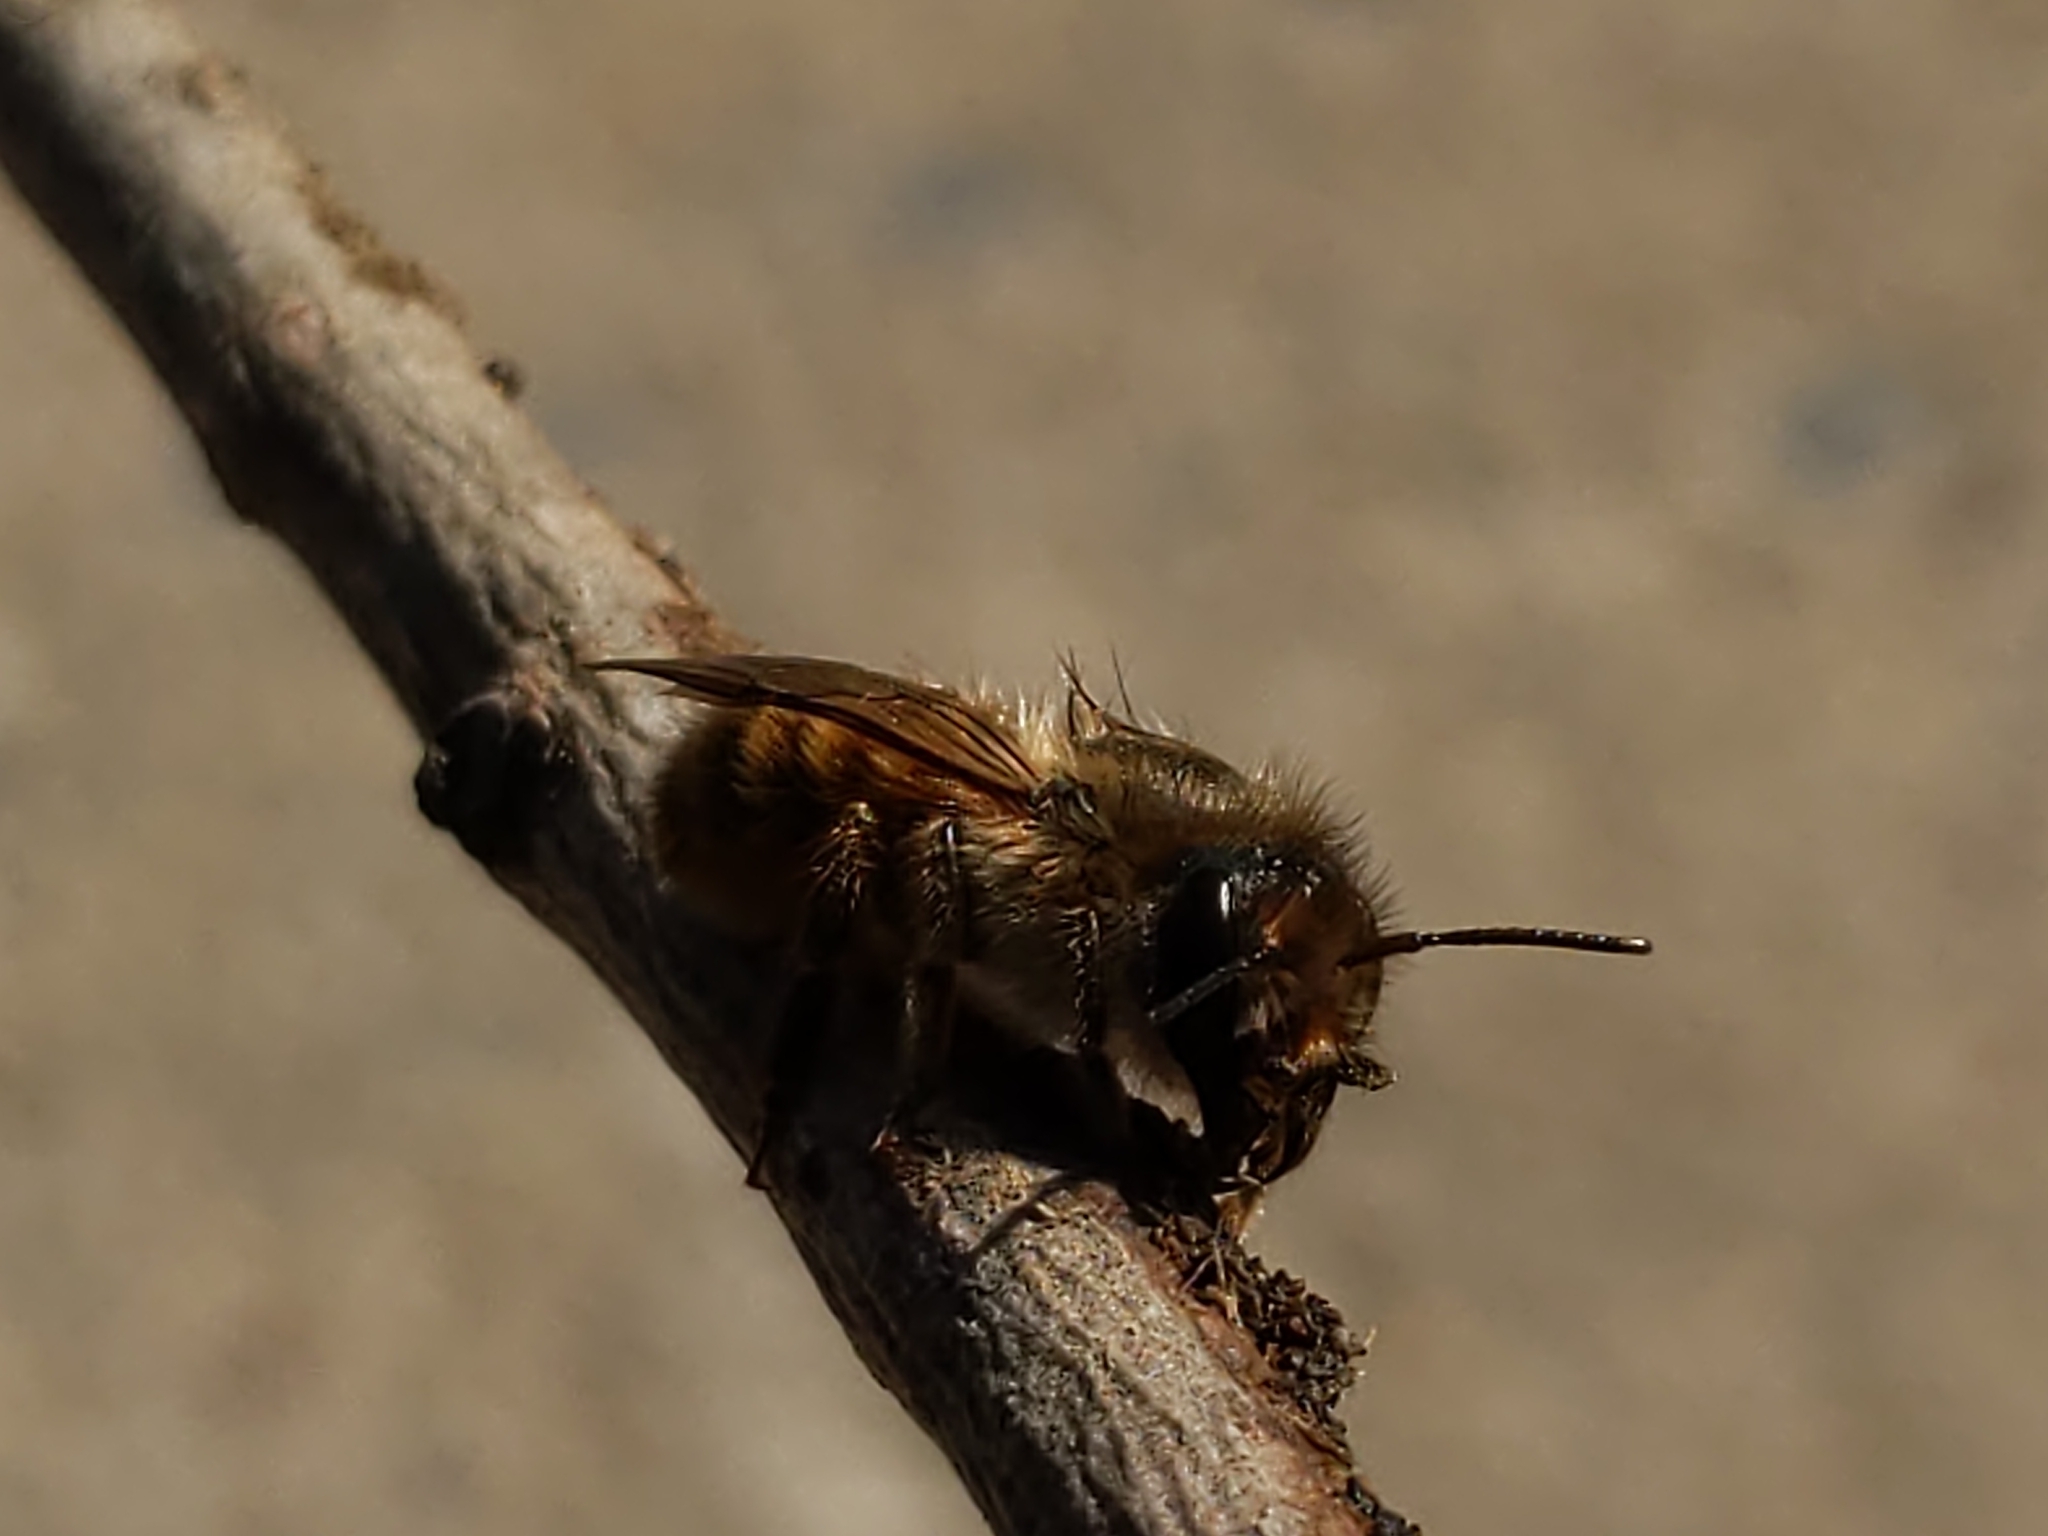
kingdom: Animalia
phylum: Arthropoda
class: Insecta
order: Hymenoptera
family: Megachilidae
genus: Osmia
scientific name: Osmia cornifrons
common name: Horn-faced bee
